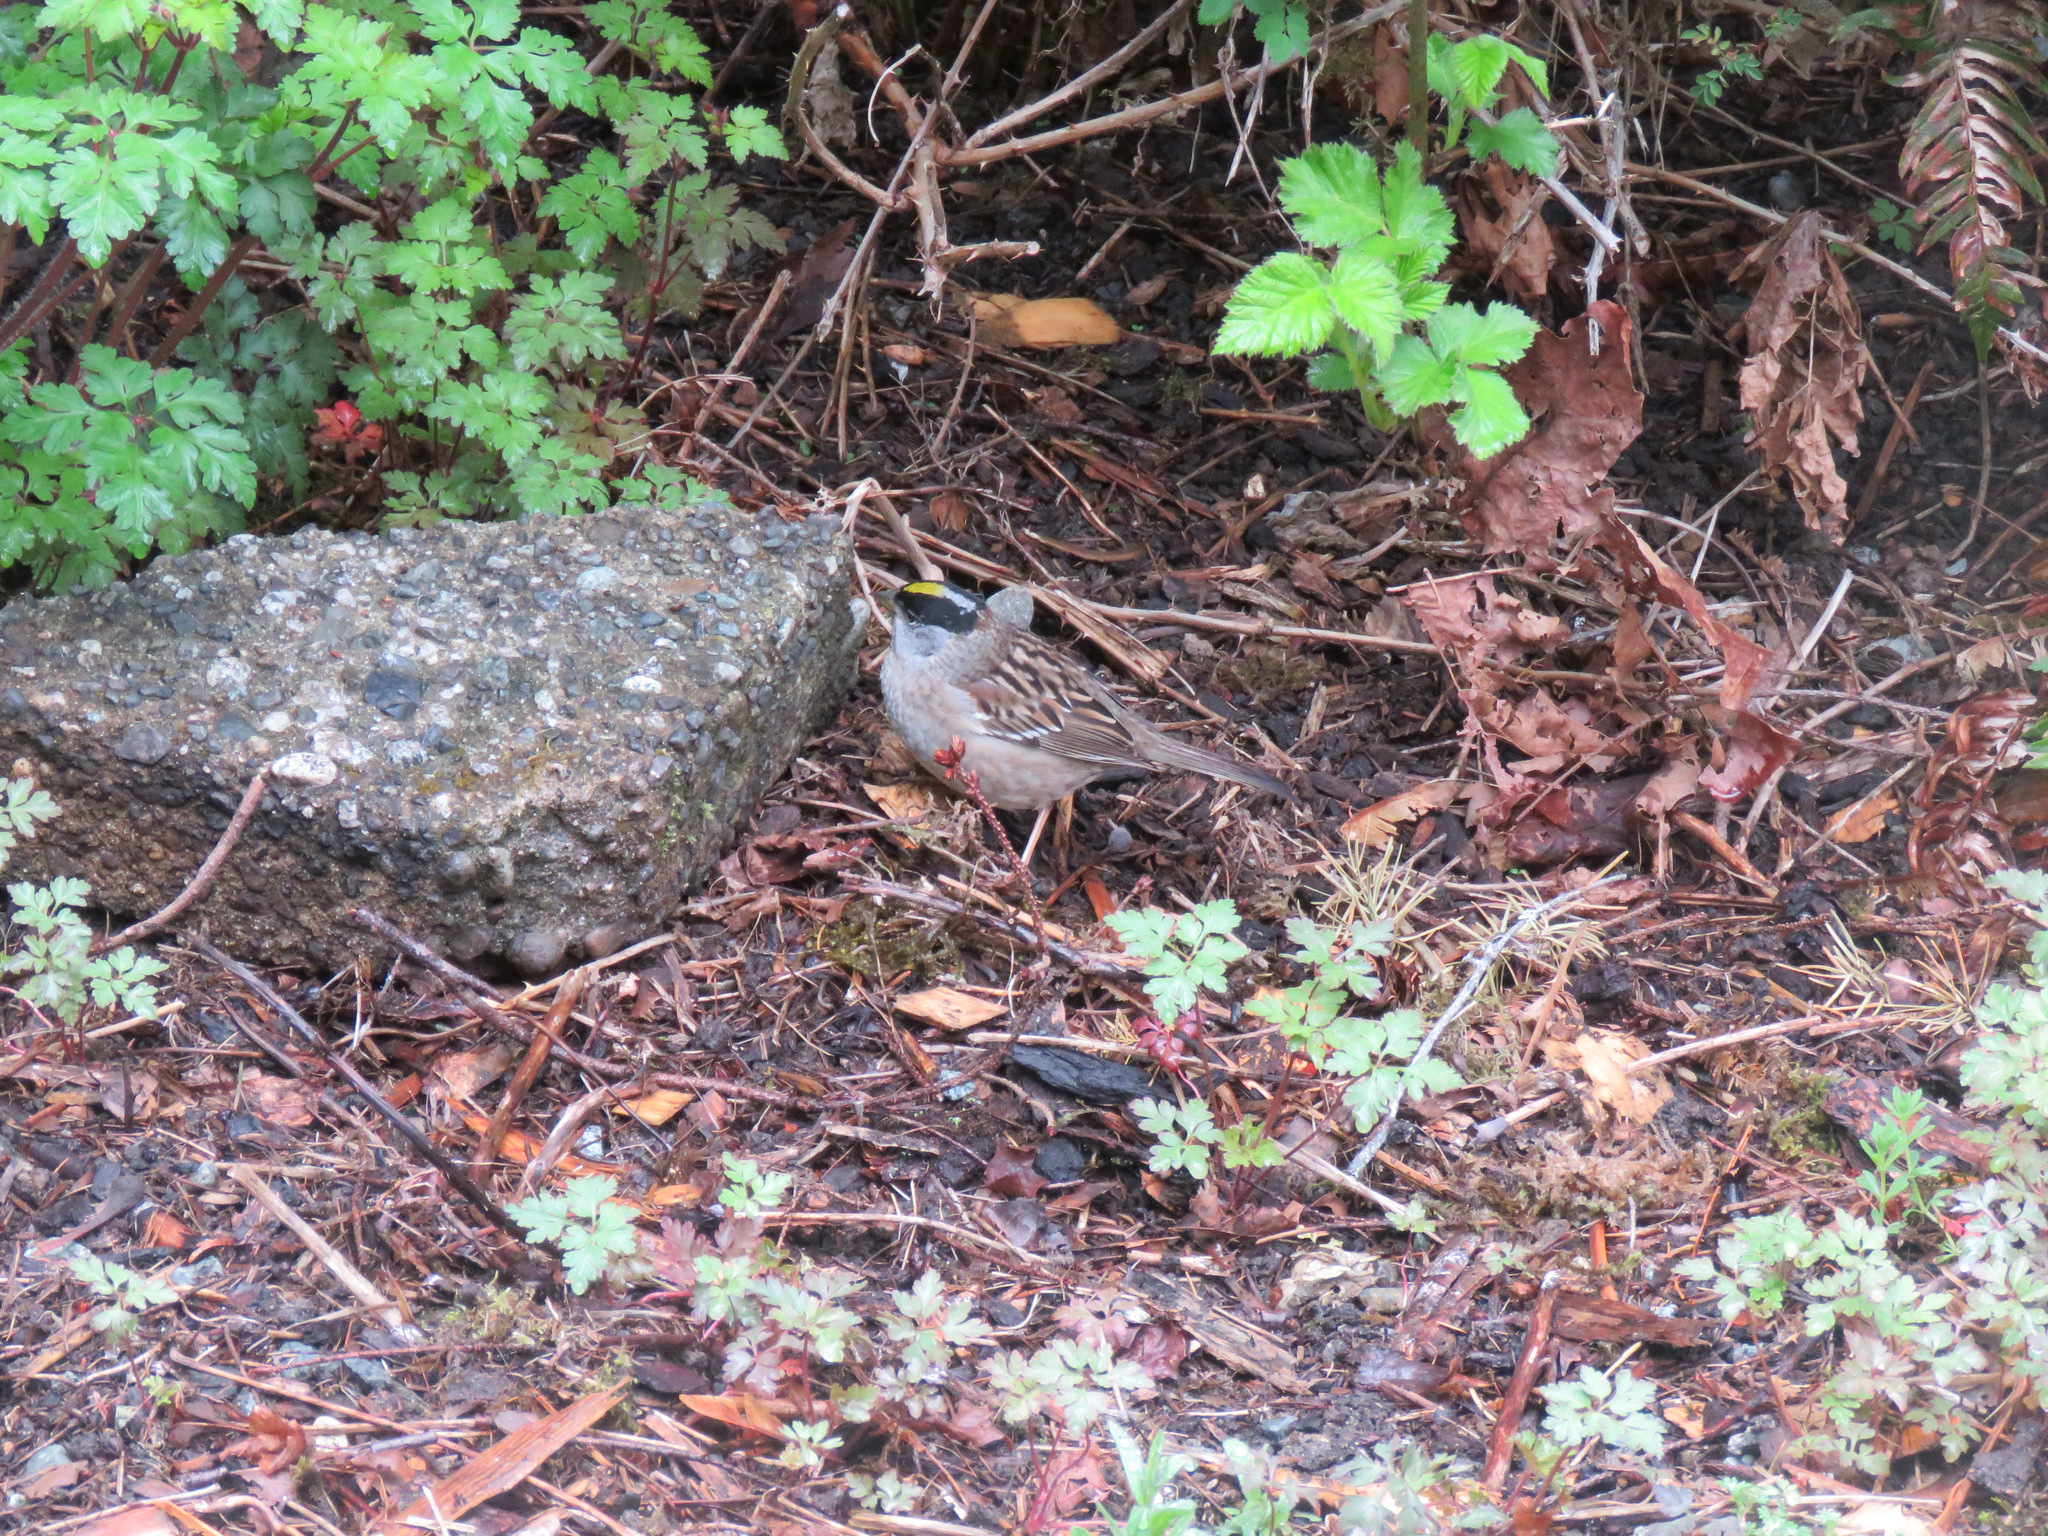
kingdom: Animalia
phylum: Chordata
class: Aves
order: Passeriformes
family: Passerellidae
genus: Zonotrichia
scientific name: Zonotrichia atricapilla
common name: Golden-crowned sparrow
